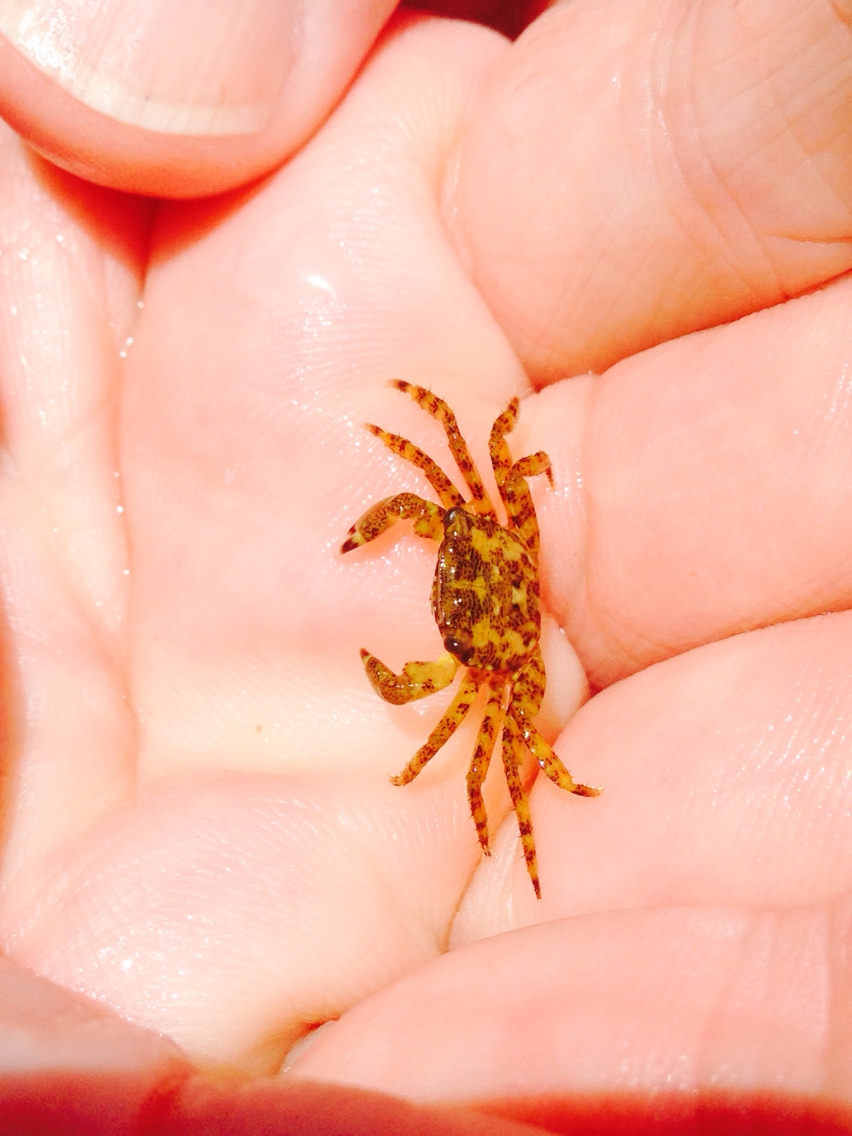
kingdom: Animalia
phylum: Arthropoda
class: Malacostraca
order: Decapoda
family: Grapsidae
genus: Pachygrapsus
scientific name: Pachygrapsus marmoratus
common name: Marbled rock crab
